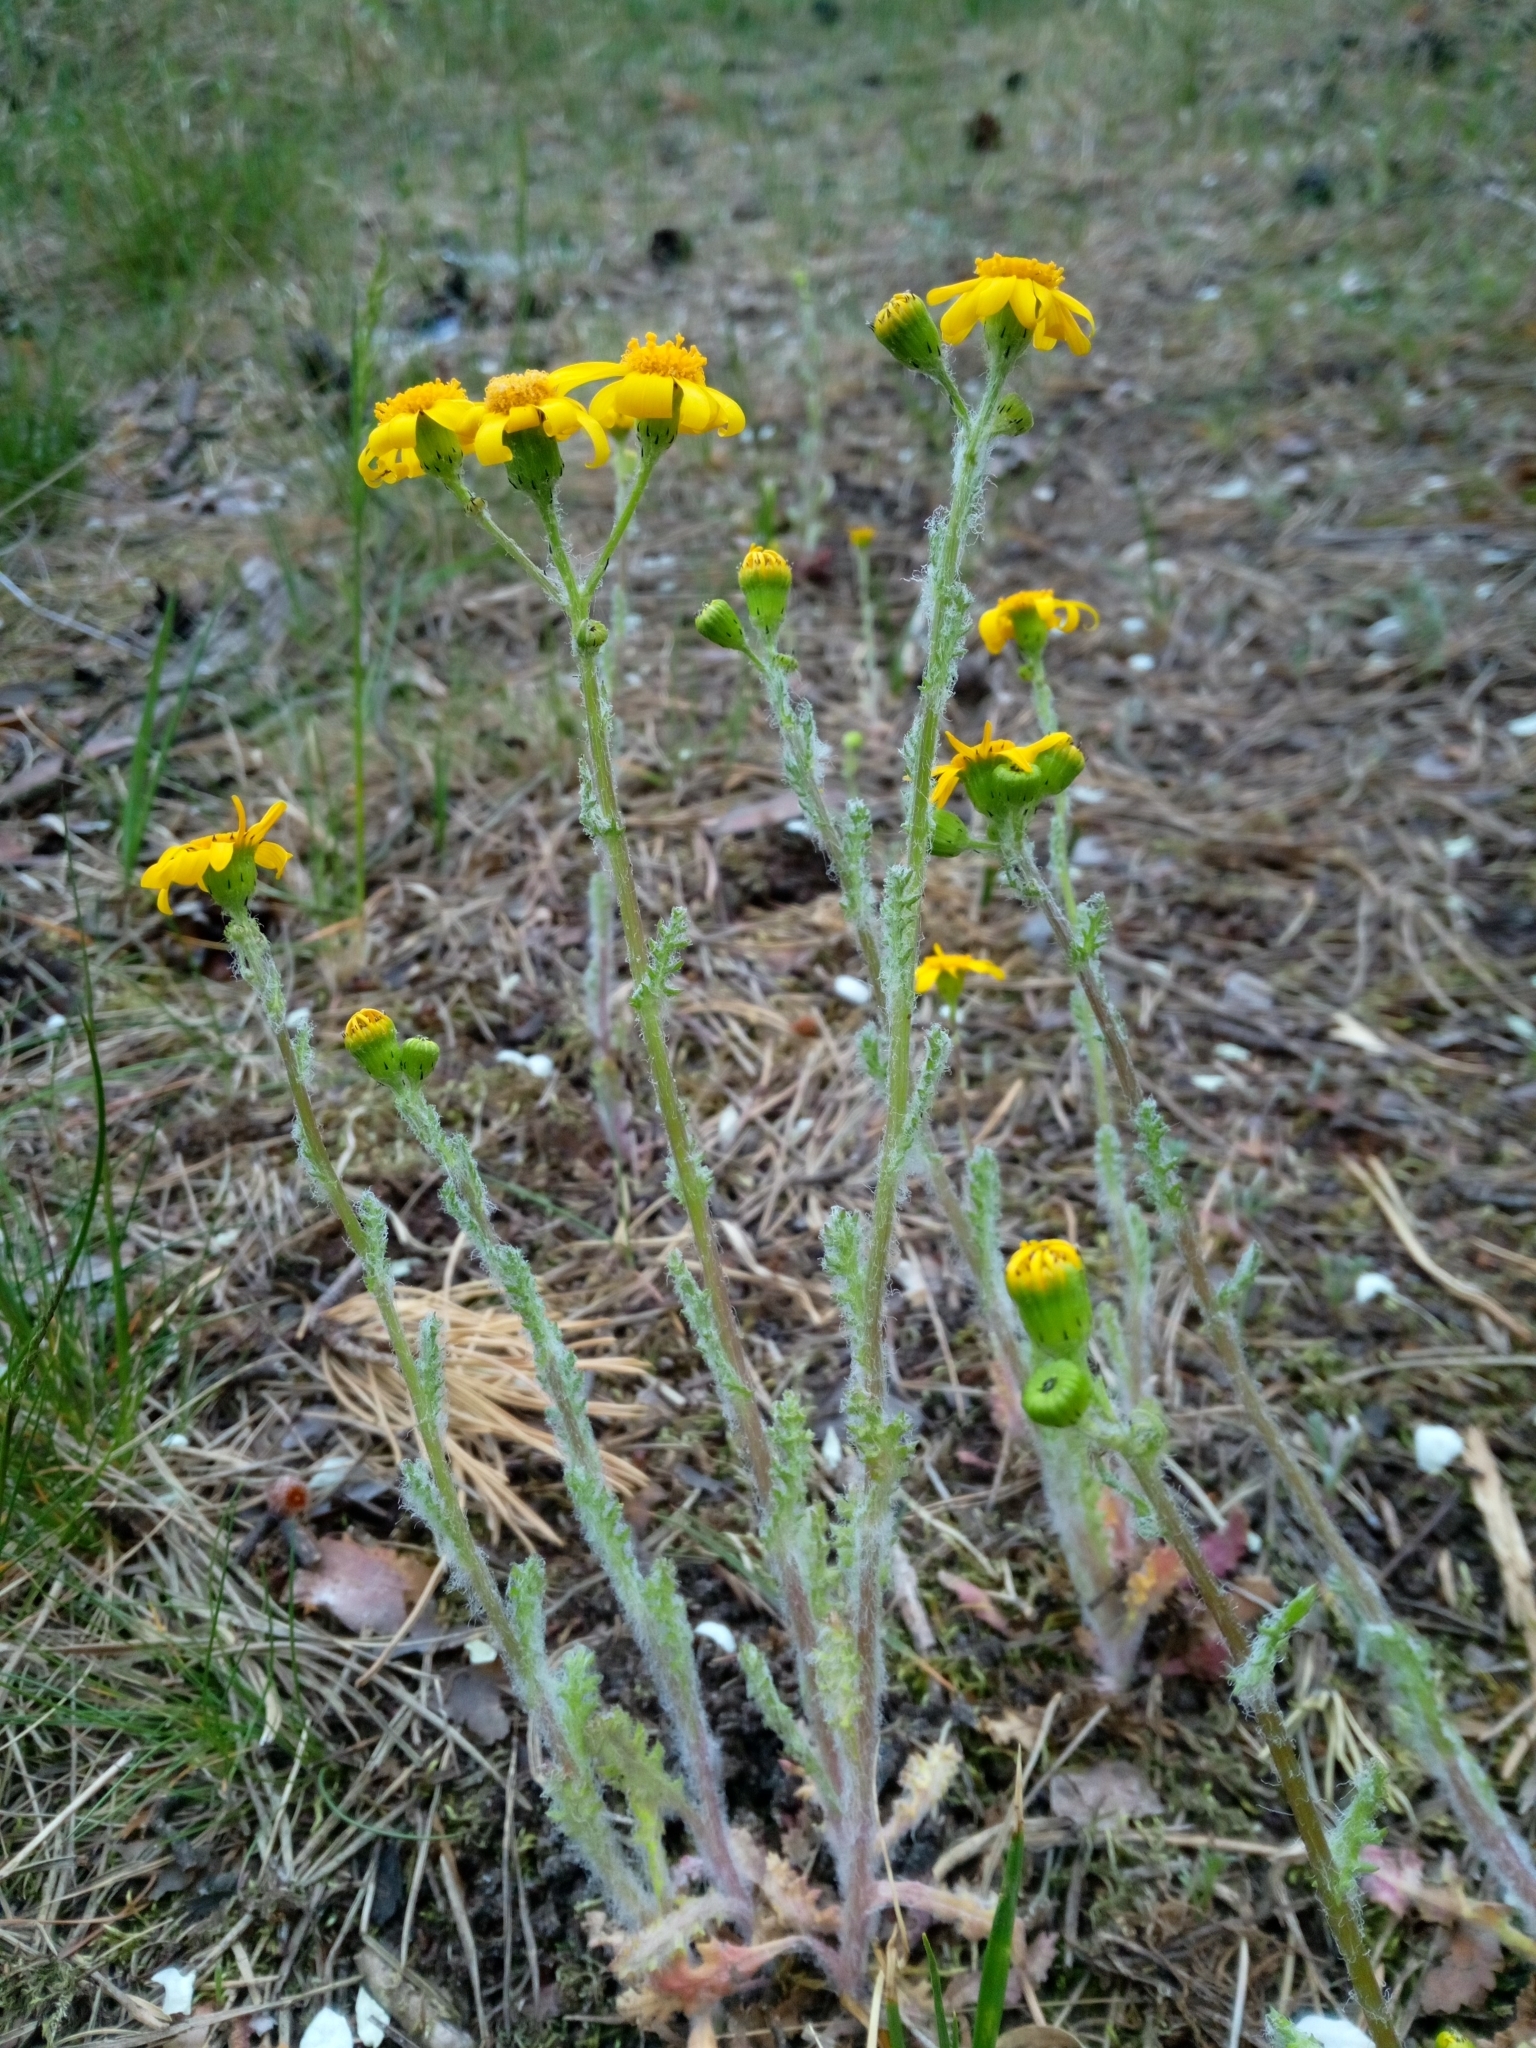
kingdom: Plantae
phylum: Tracheophyta
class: Magnoliopsida
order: Asterales
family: Asteraceae
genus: Senecio
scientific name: Senecio vernalis
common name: Eastern groundsel
